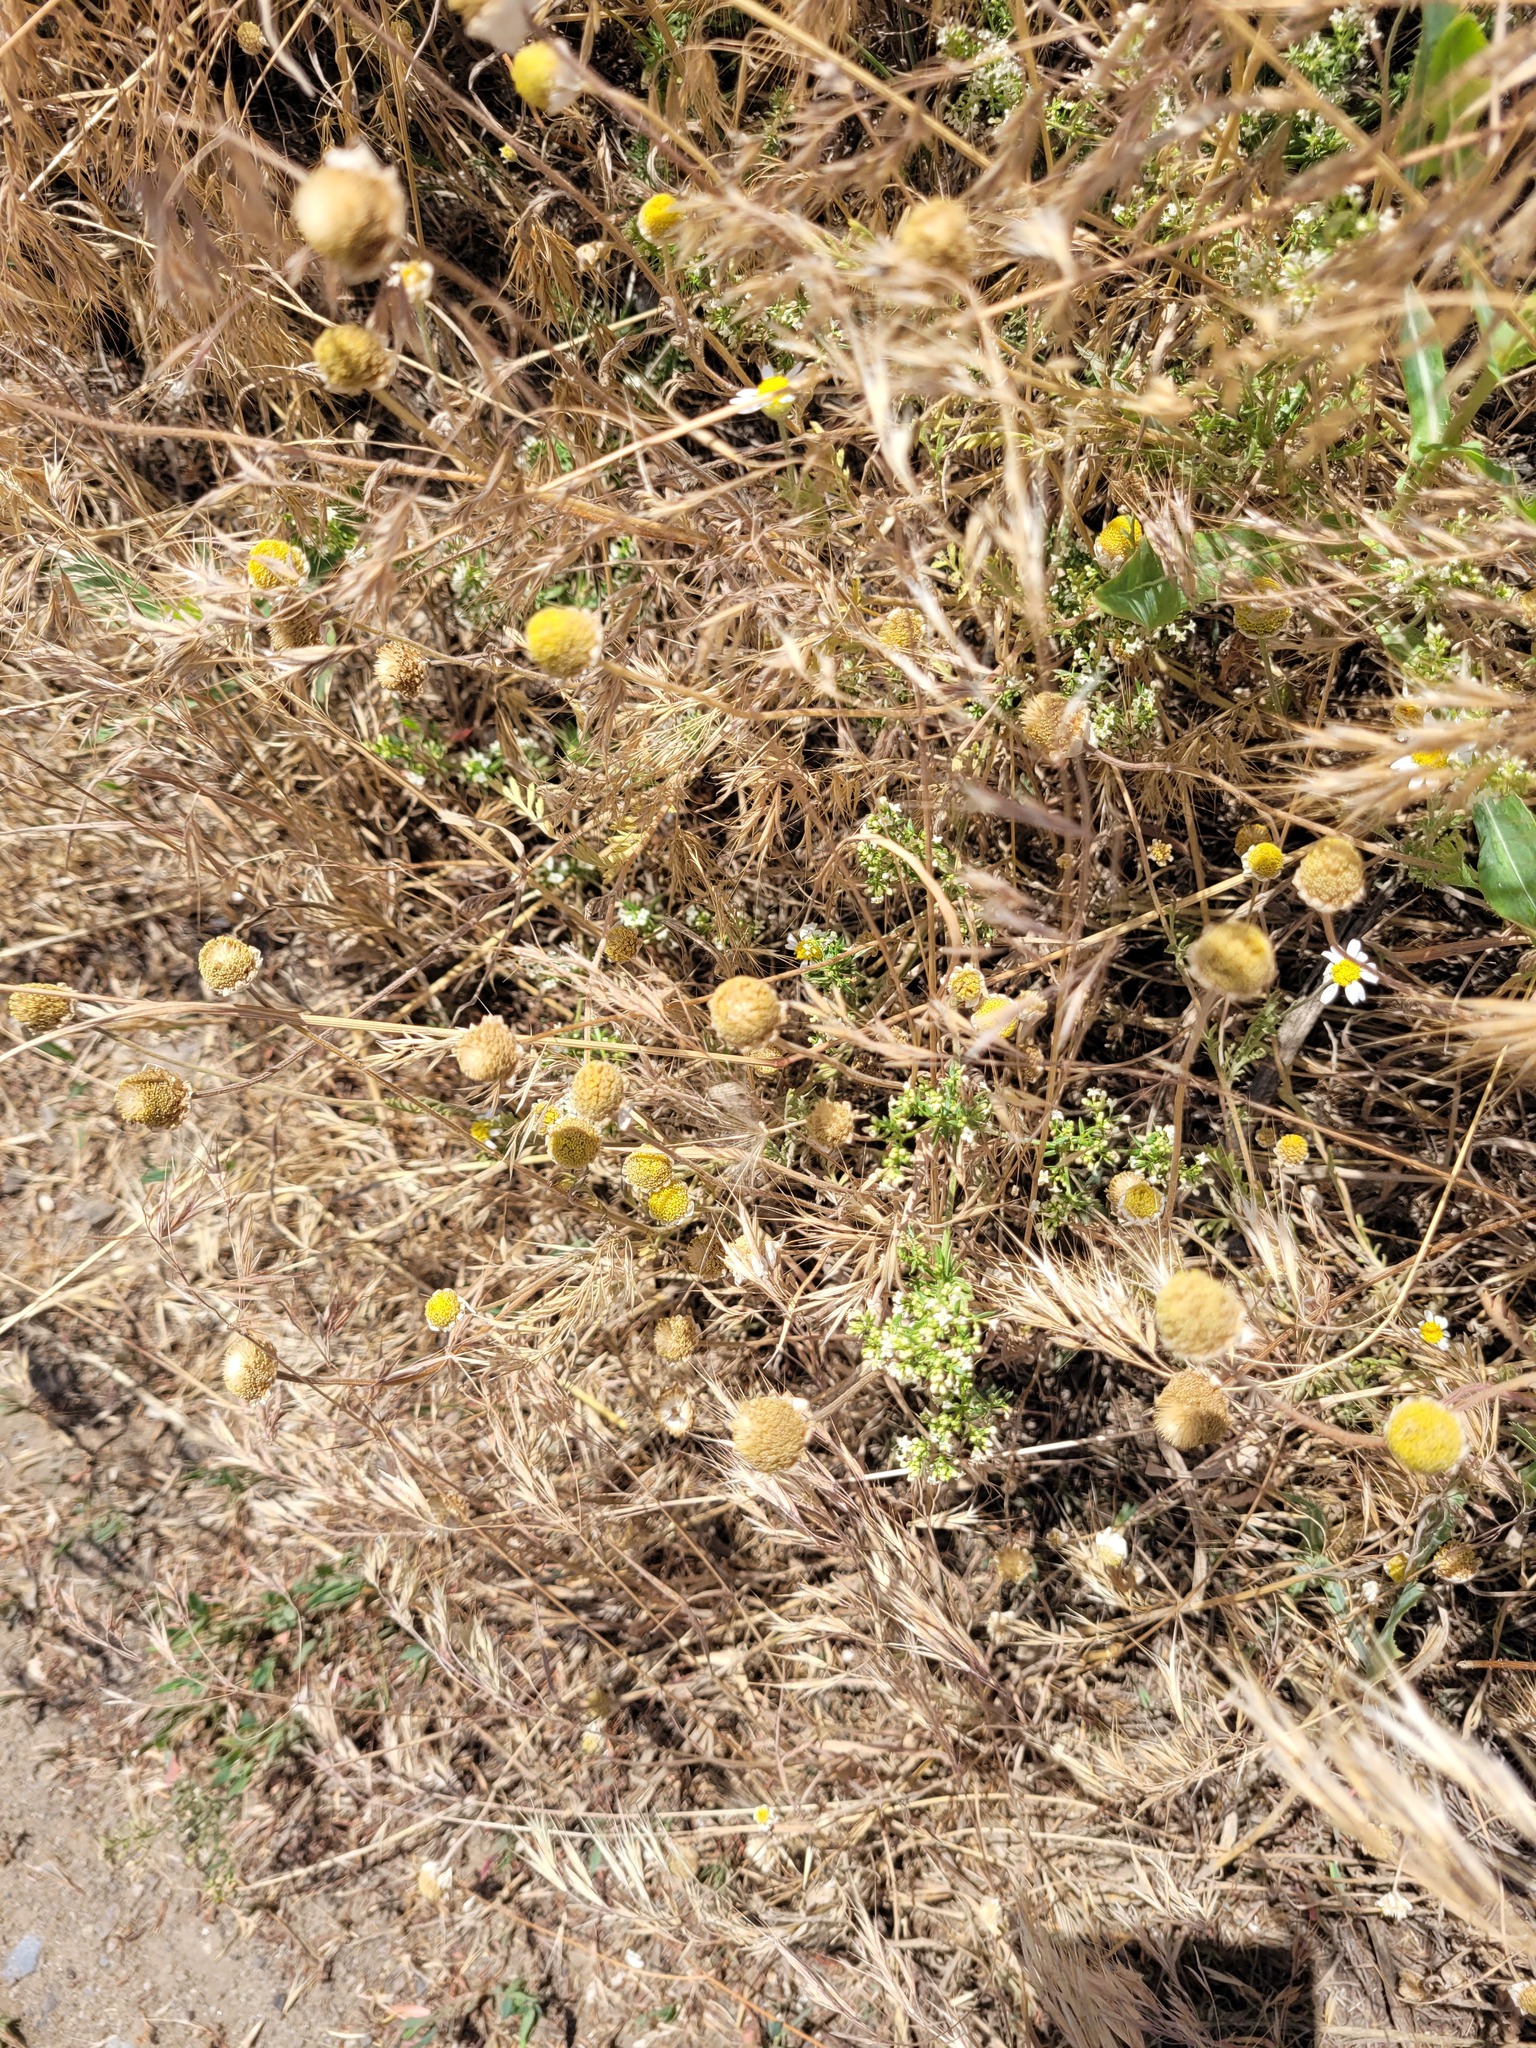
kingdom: Plantae
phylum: Tracheophyta
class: Magnoliopsida
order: Asterales
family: Asteraceae
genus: Anthemis
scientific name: Anthemis ruthenica
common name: Eastern chamomile
